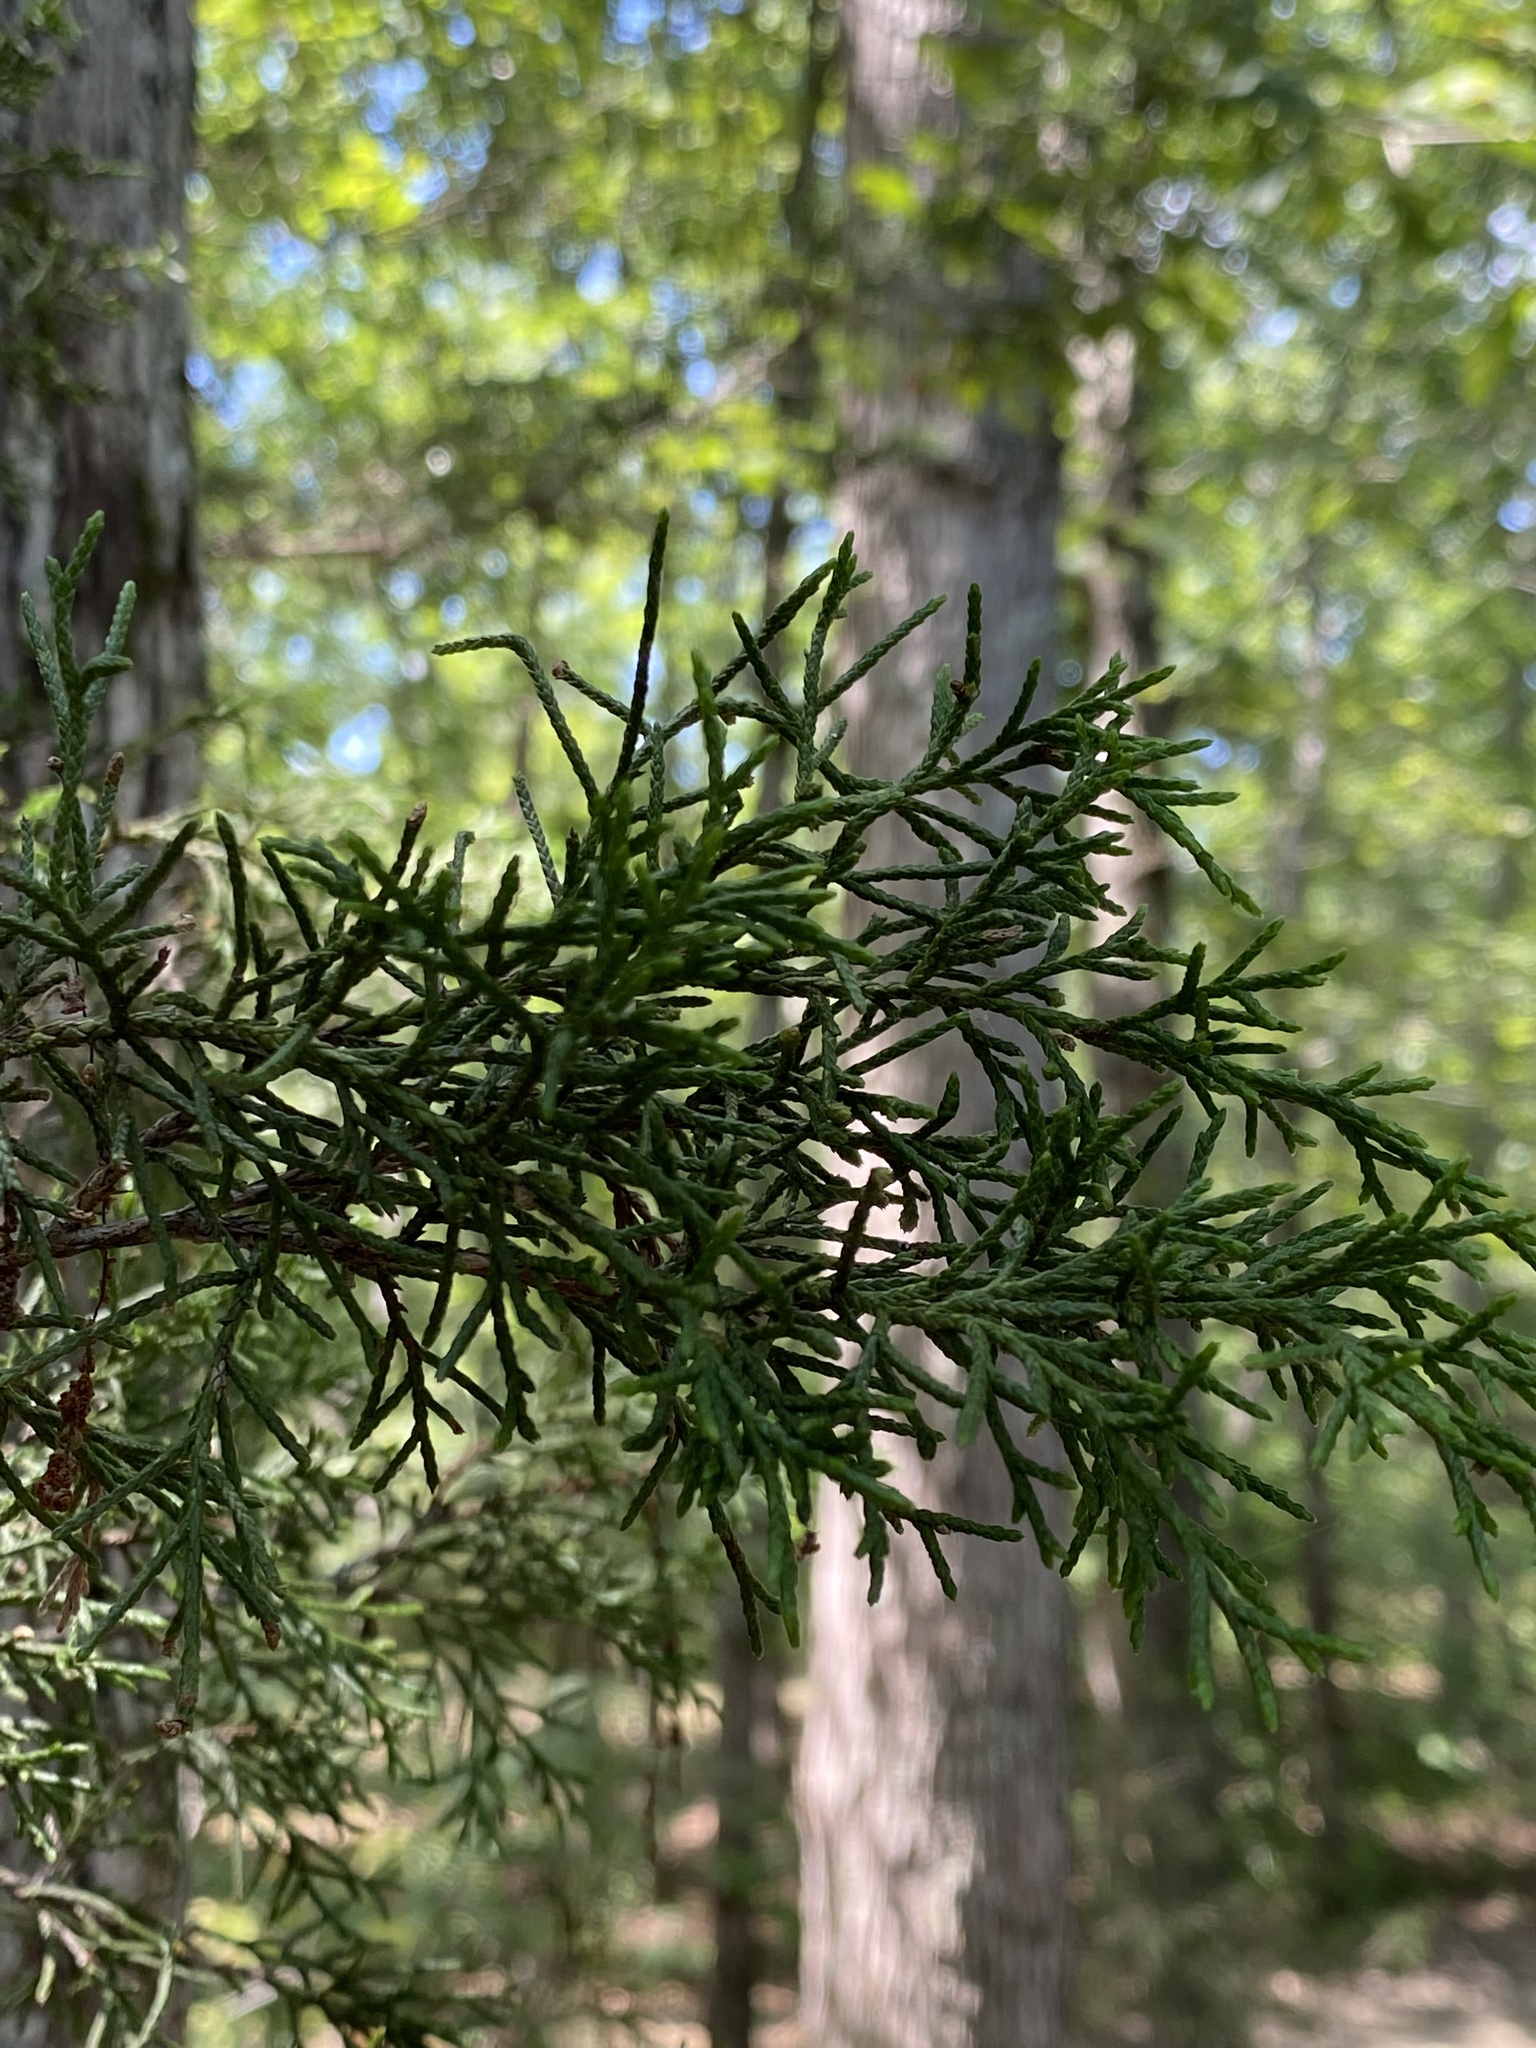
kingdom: Plantae
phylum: Tracheophyta
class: Pinopsida
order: Pinales
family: Cupressaceae
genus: Juniperus
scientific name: Juniperus virginiana
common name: Red juniper
